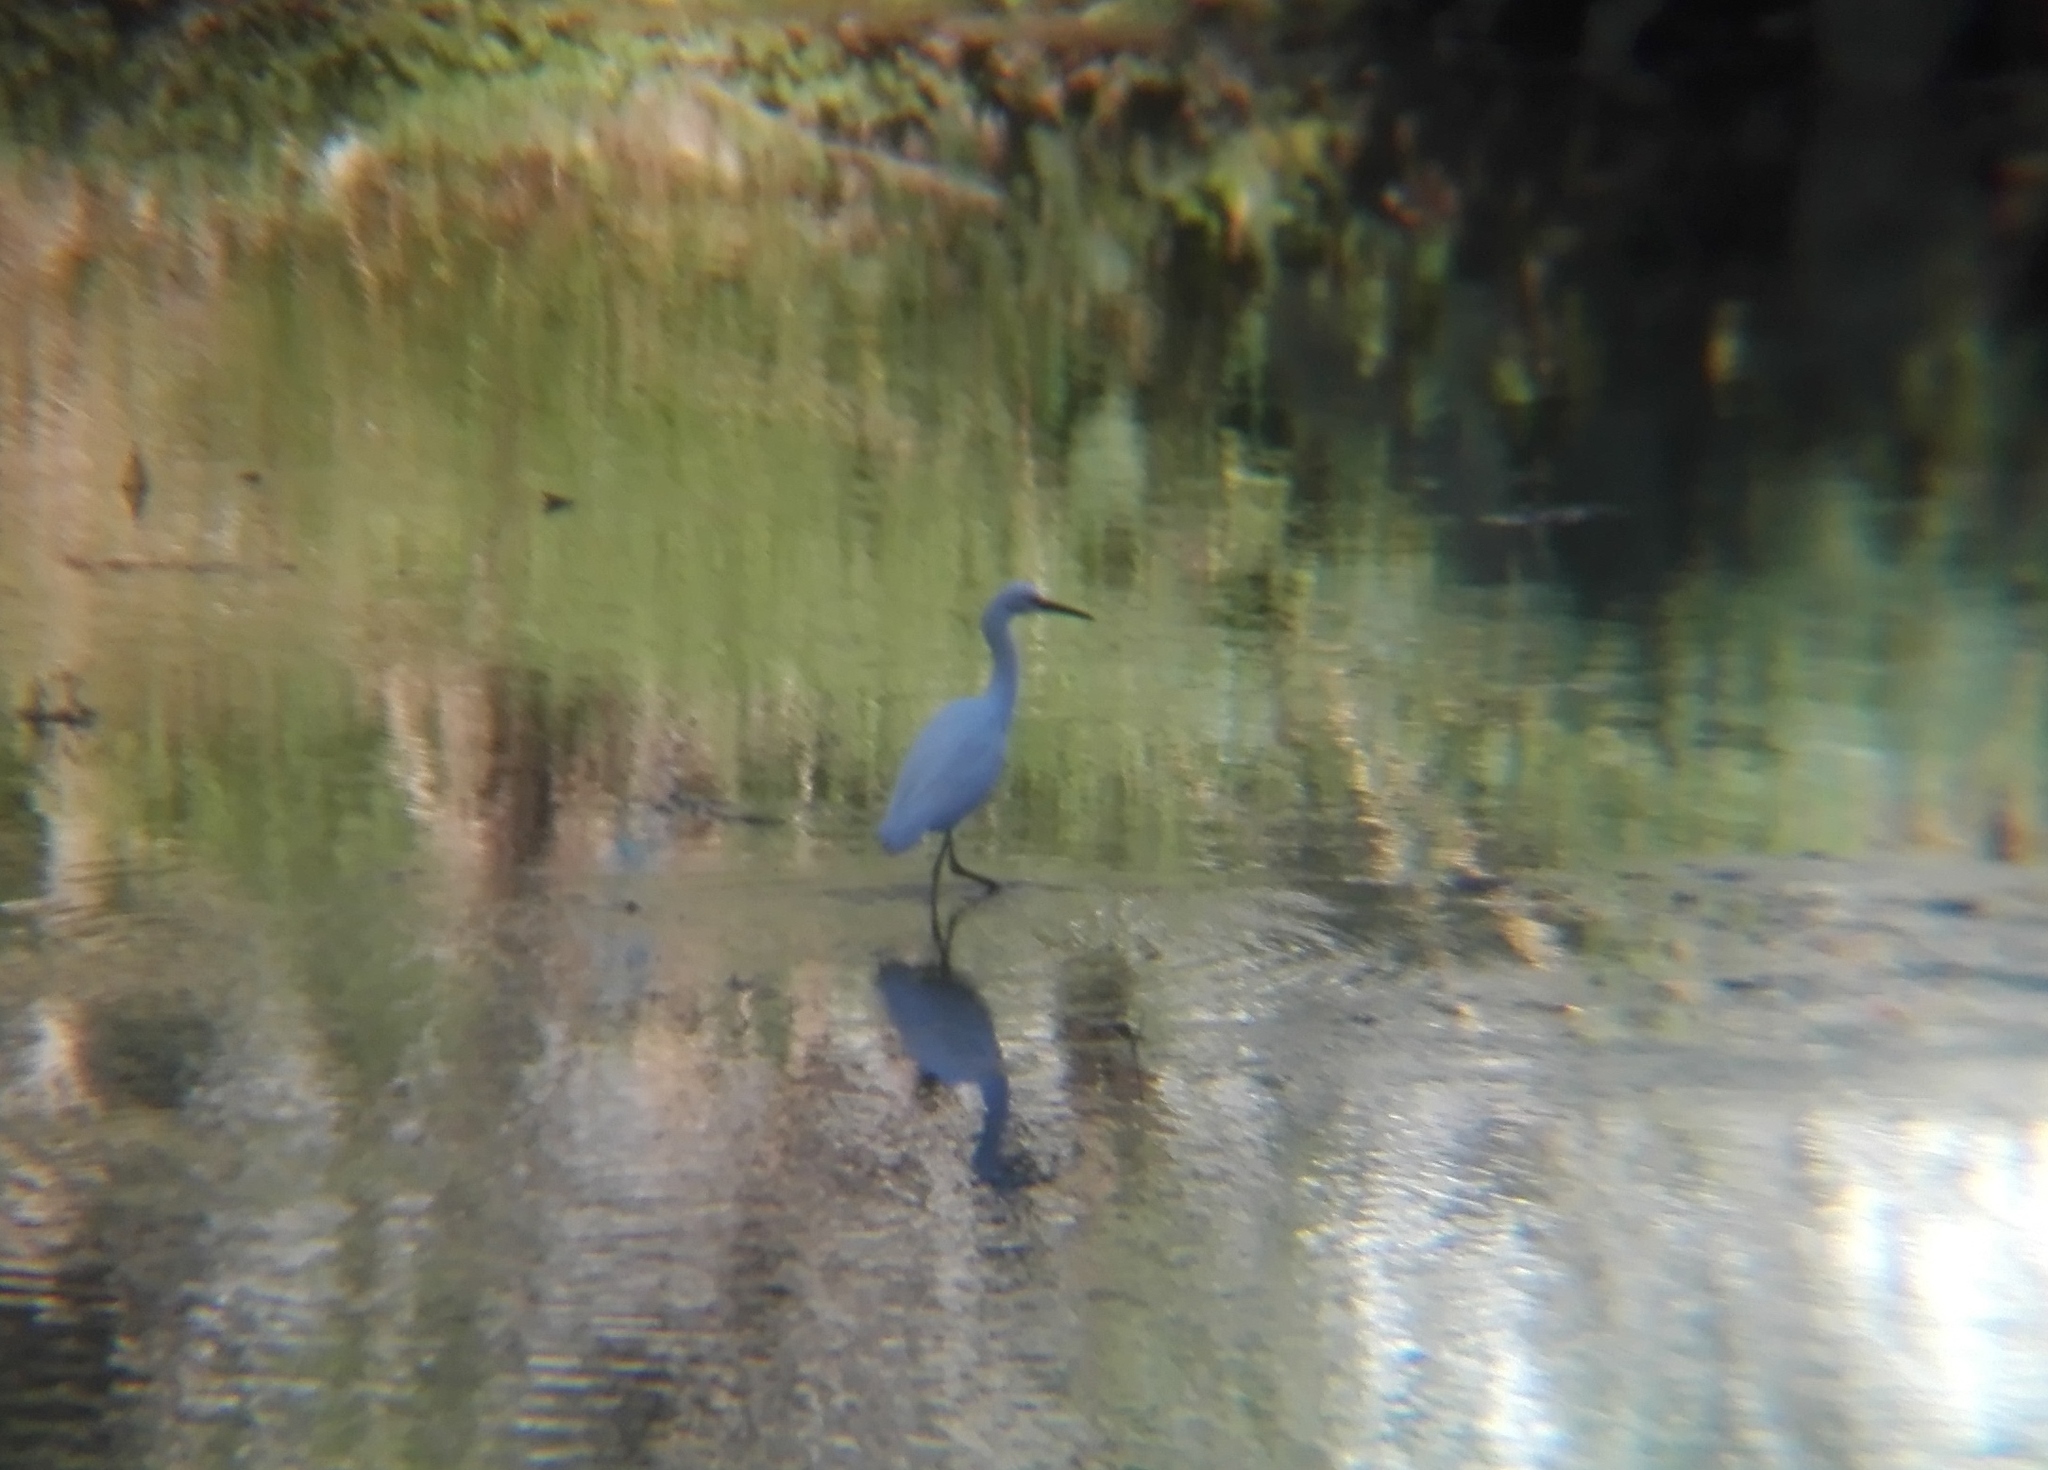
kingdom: Animalia
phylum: Chordata
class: Aves
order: Pelecaniformes
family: Ardeidae
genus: Egretta
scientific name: Egretta thula
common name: Snowy egret
